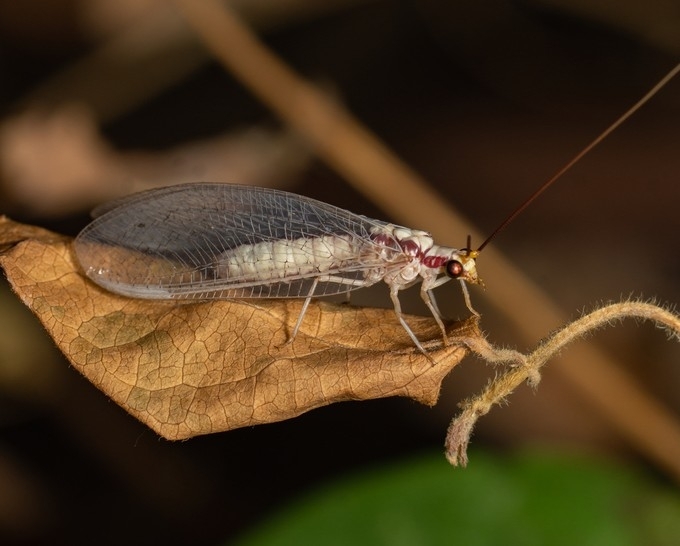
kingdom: Animalia
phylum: Arthropoda
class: Insecta
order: Neuroptera
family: Chrysopidae
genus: Italochrysa
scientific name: Italochrysa italica
